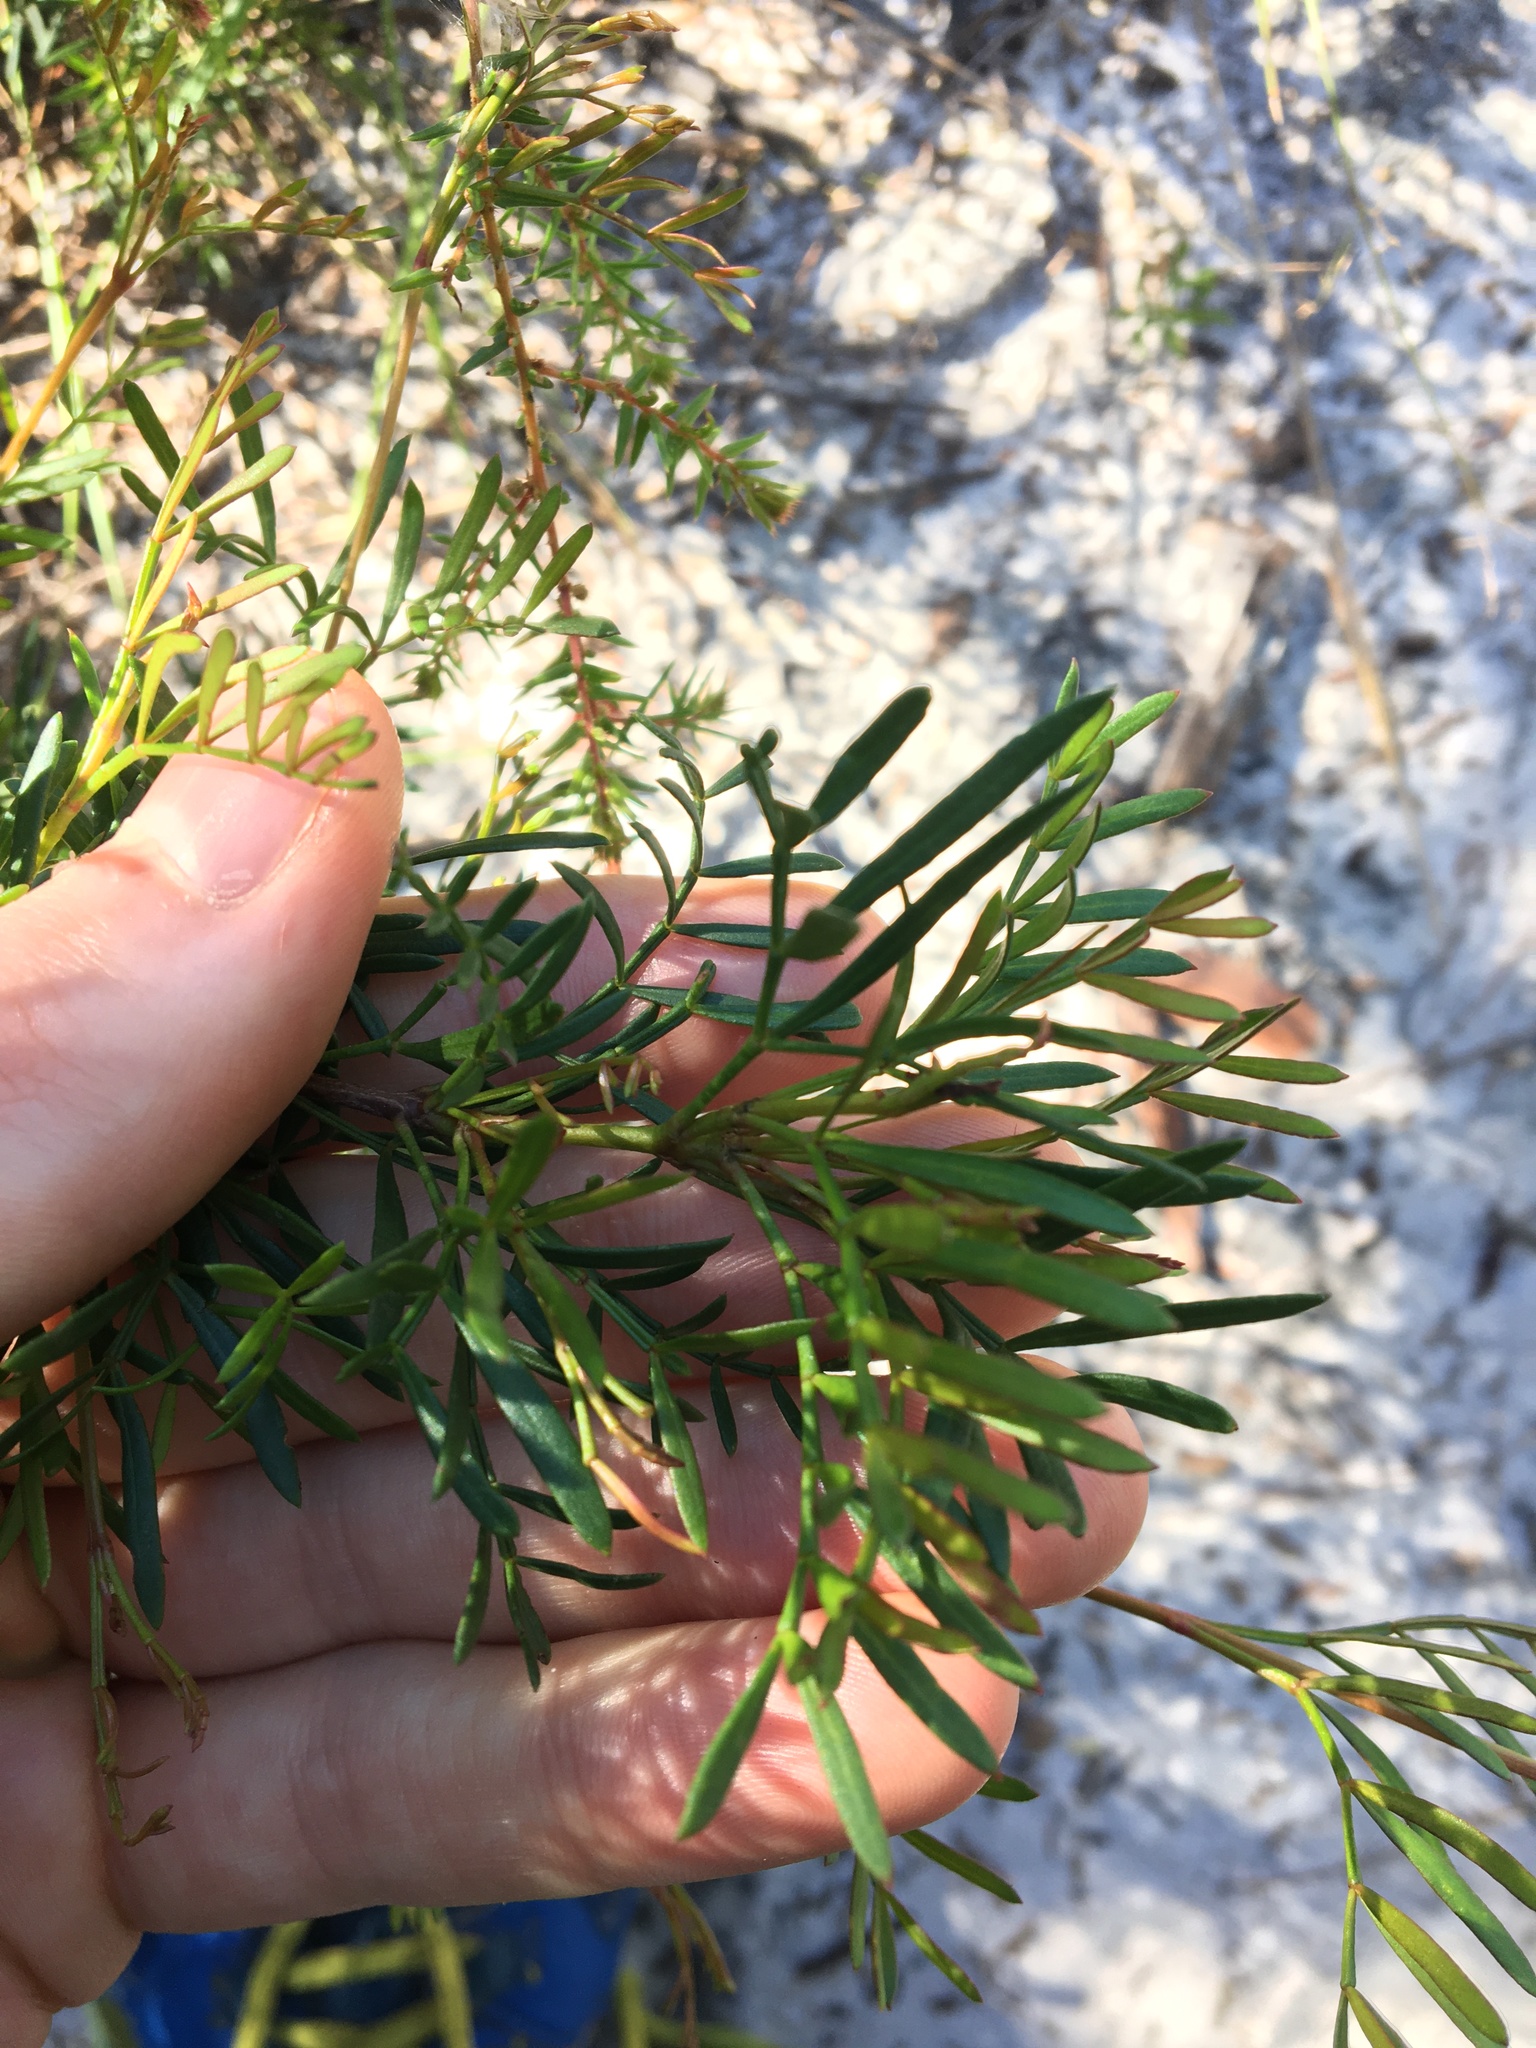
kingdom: Plantae
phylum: Tracheophyta
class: Magnoliopsida
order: Sapindales
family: Rutaceae
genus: Boronia
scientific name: Boronia pinnata
